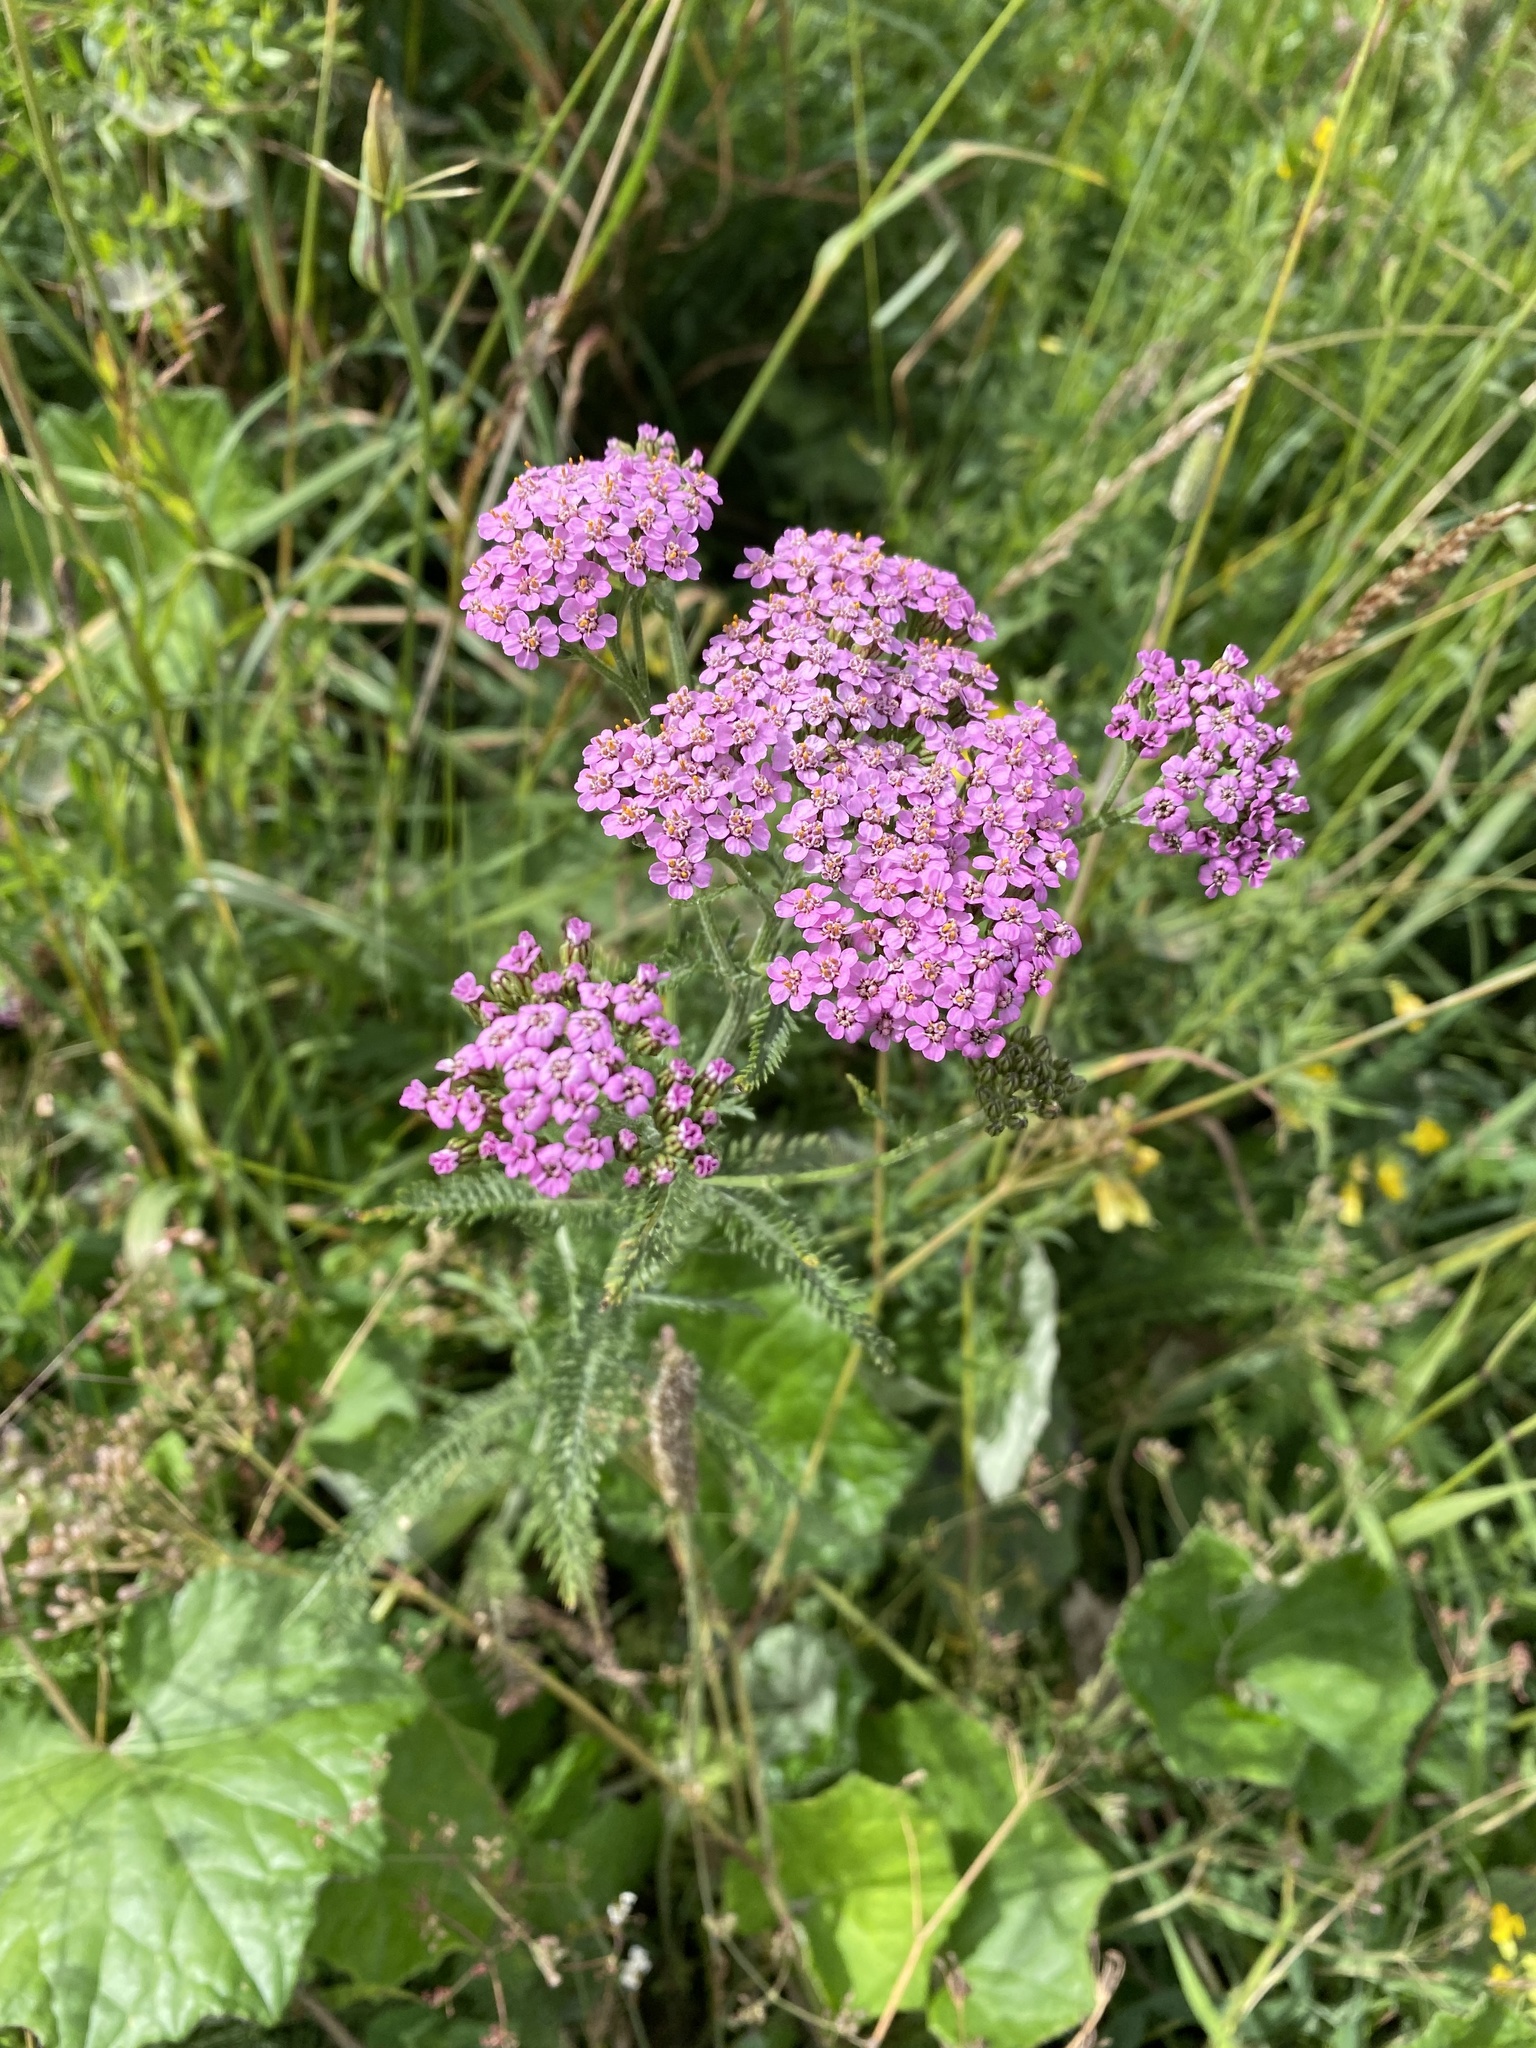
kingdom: Plantae
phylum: Tracheophyta
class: Magnoliopsida
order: Asterales
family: Asteraceae
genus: Achillea
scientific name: Achillea millefolium
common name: Yarrow
